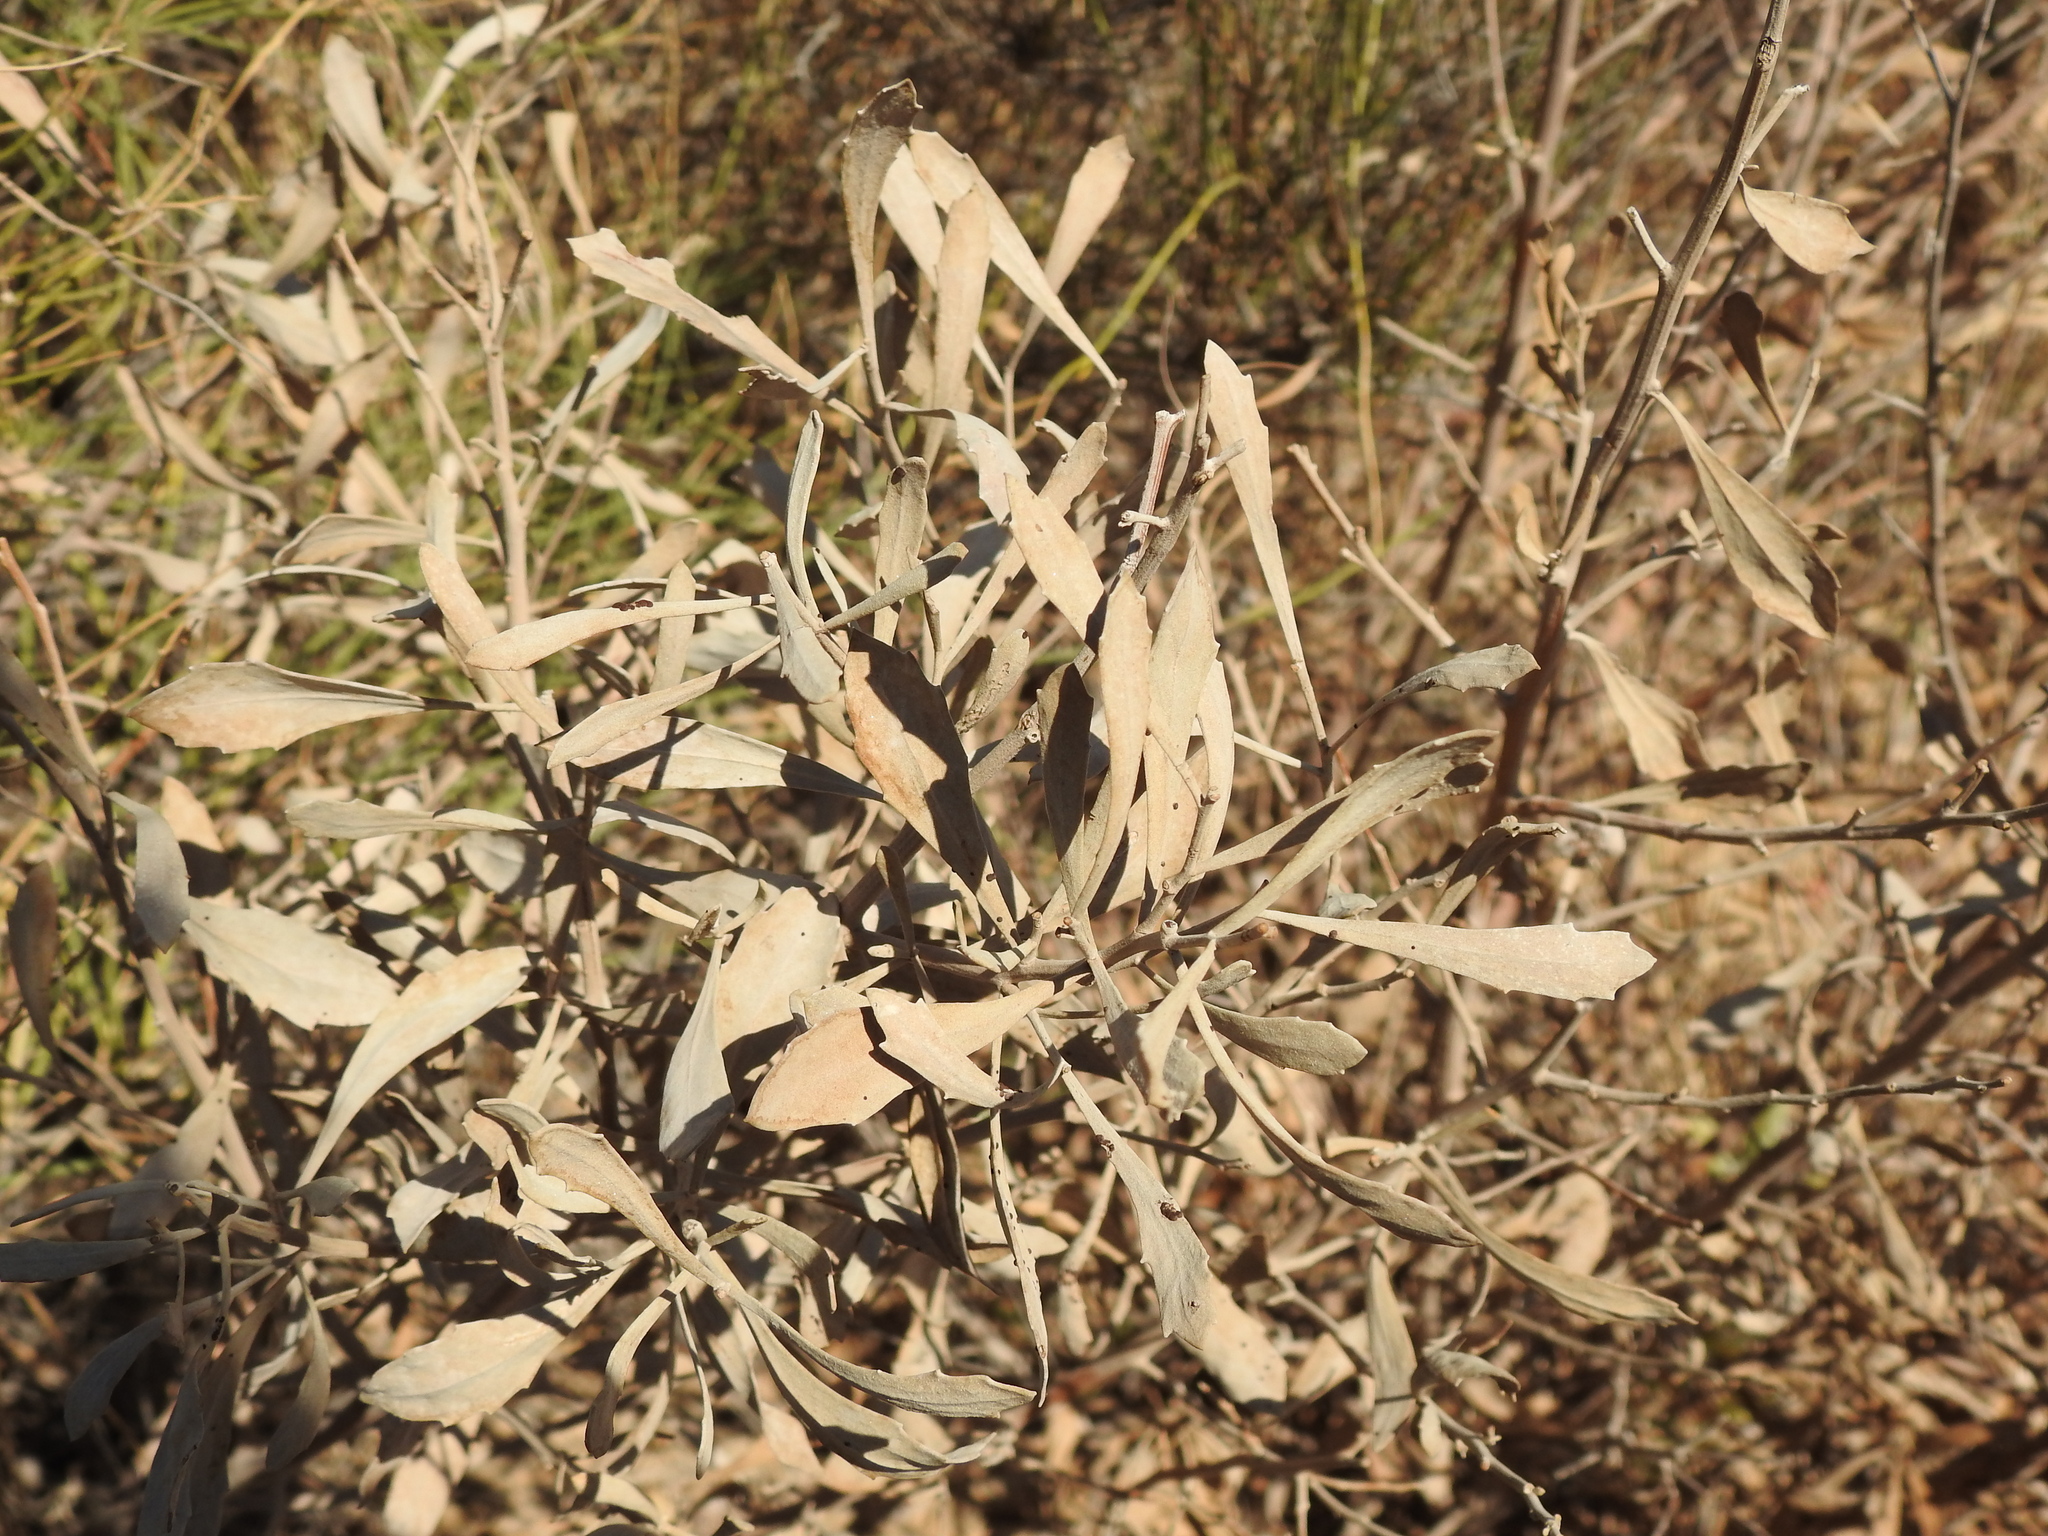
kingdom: Plantae
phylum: Tracheophyta
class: Magnoliopsida
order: Asterales
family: Asteraceae
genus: Tessaria
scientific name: Tessaria absinthioides
